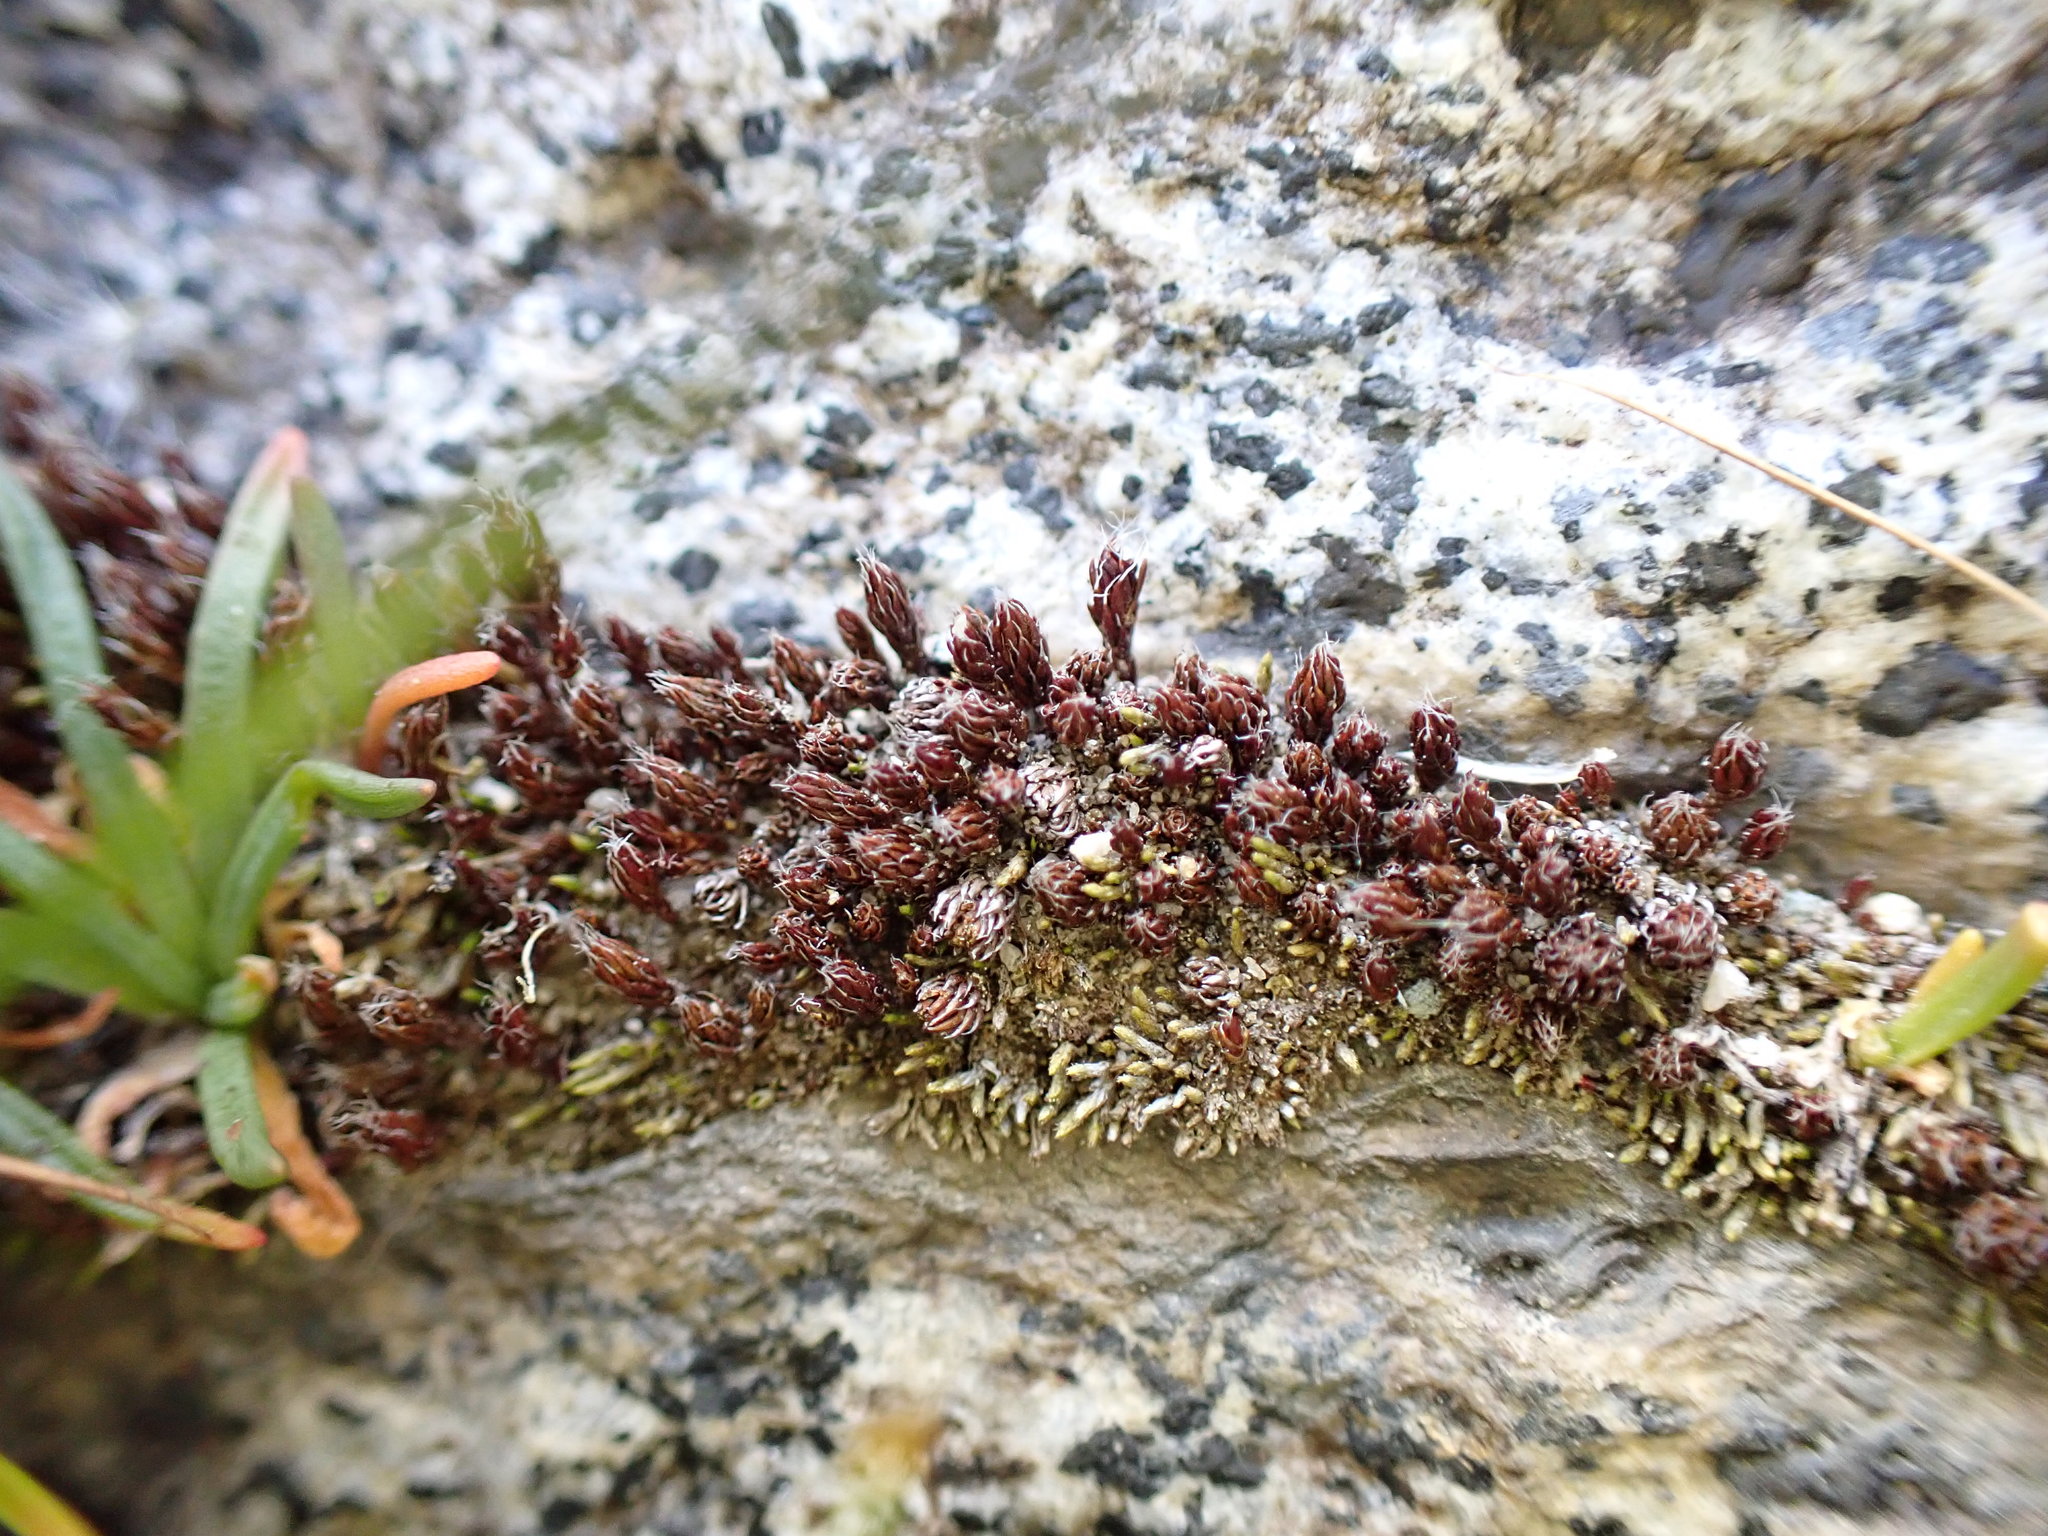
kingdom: Plantae
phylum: Bryophyta
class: Polytrichopsida
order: Polytrichales
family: Polytrichaceae
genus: Polytrichum
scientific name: Polytrichum piliferum
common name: Bristly haircap
